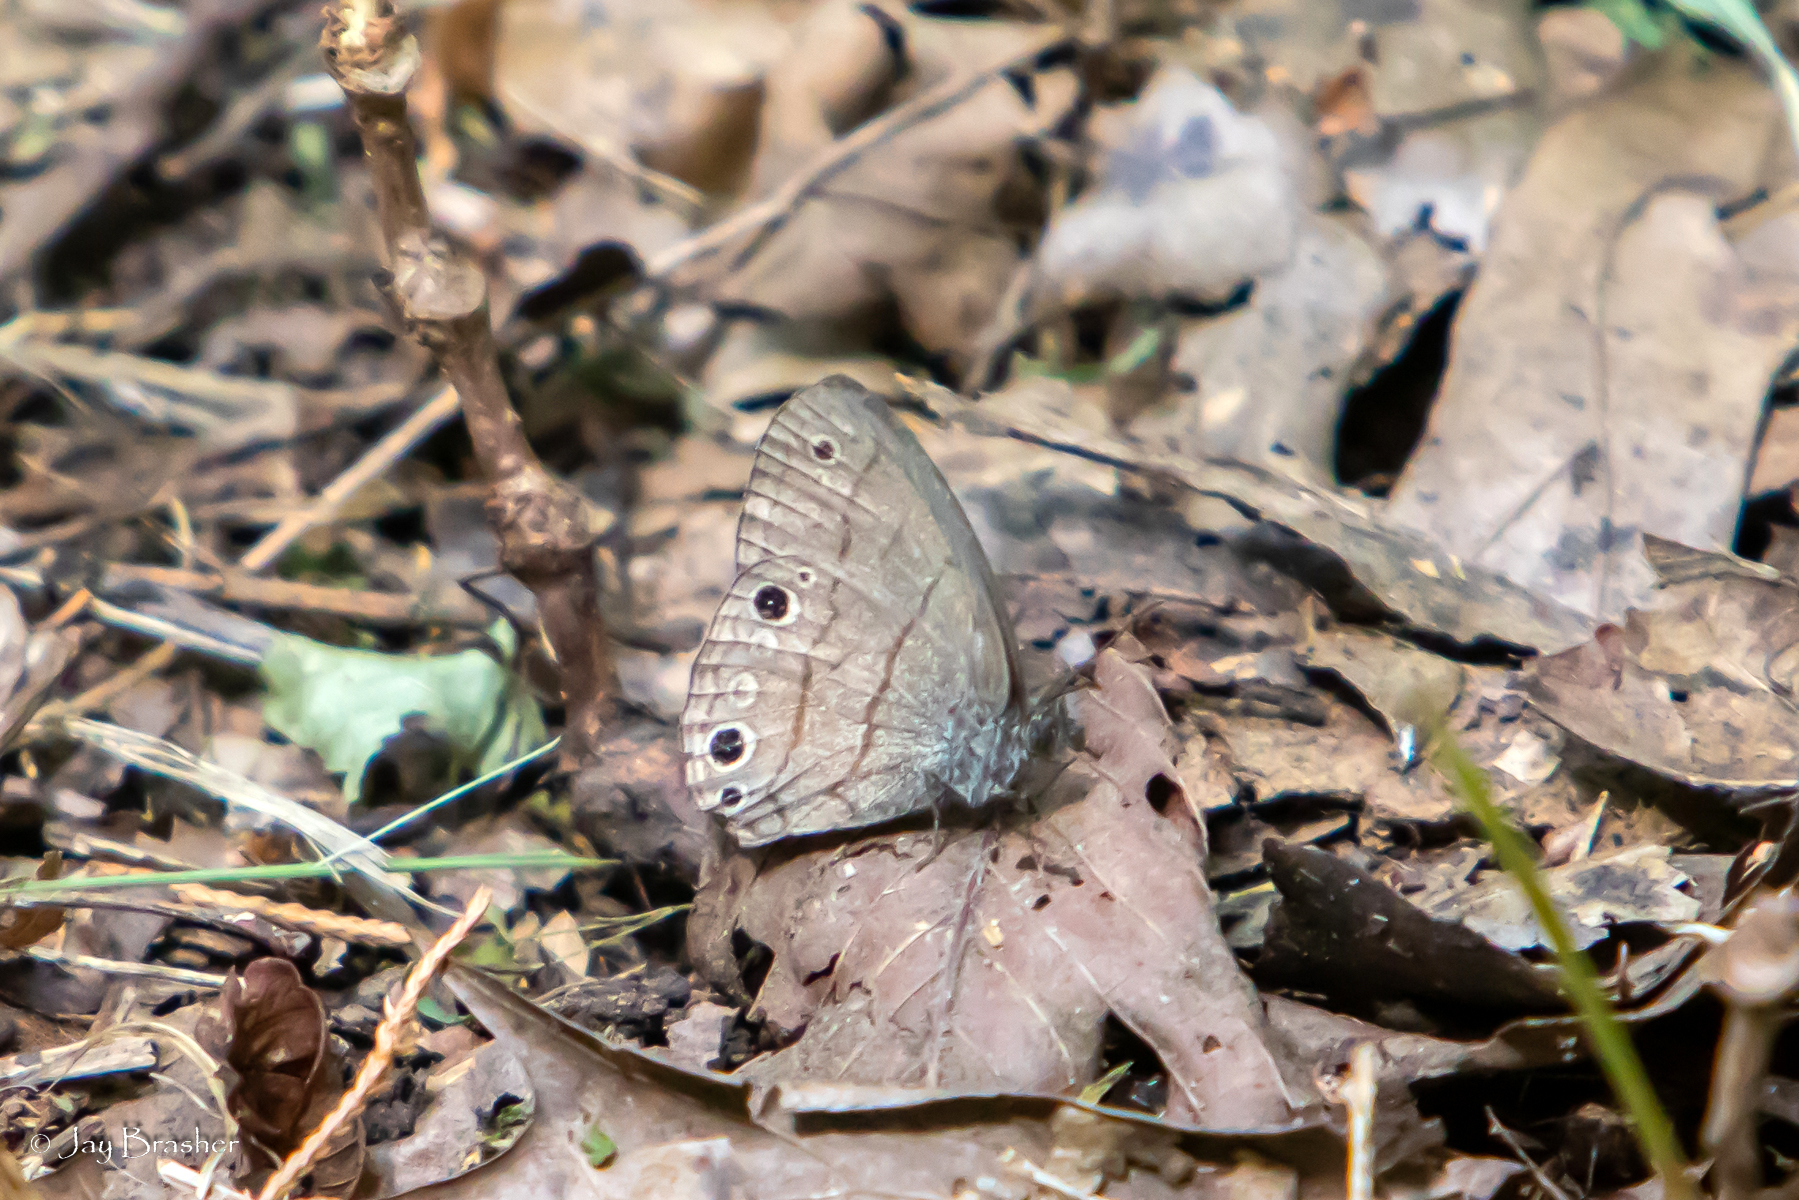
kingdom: Animalia
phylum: Arthropoda
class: Insecta
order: Lepidoptera
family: Nymphalidae
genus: Hermeuptychia
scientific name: Hermeuptychia hermes
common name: Hermes satyr
